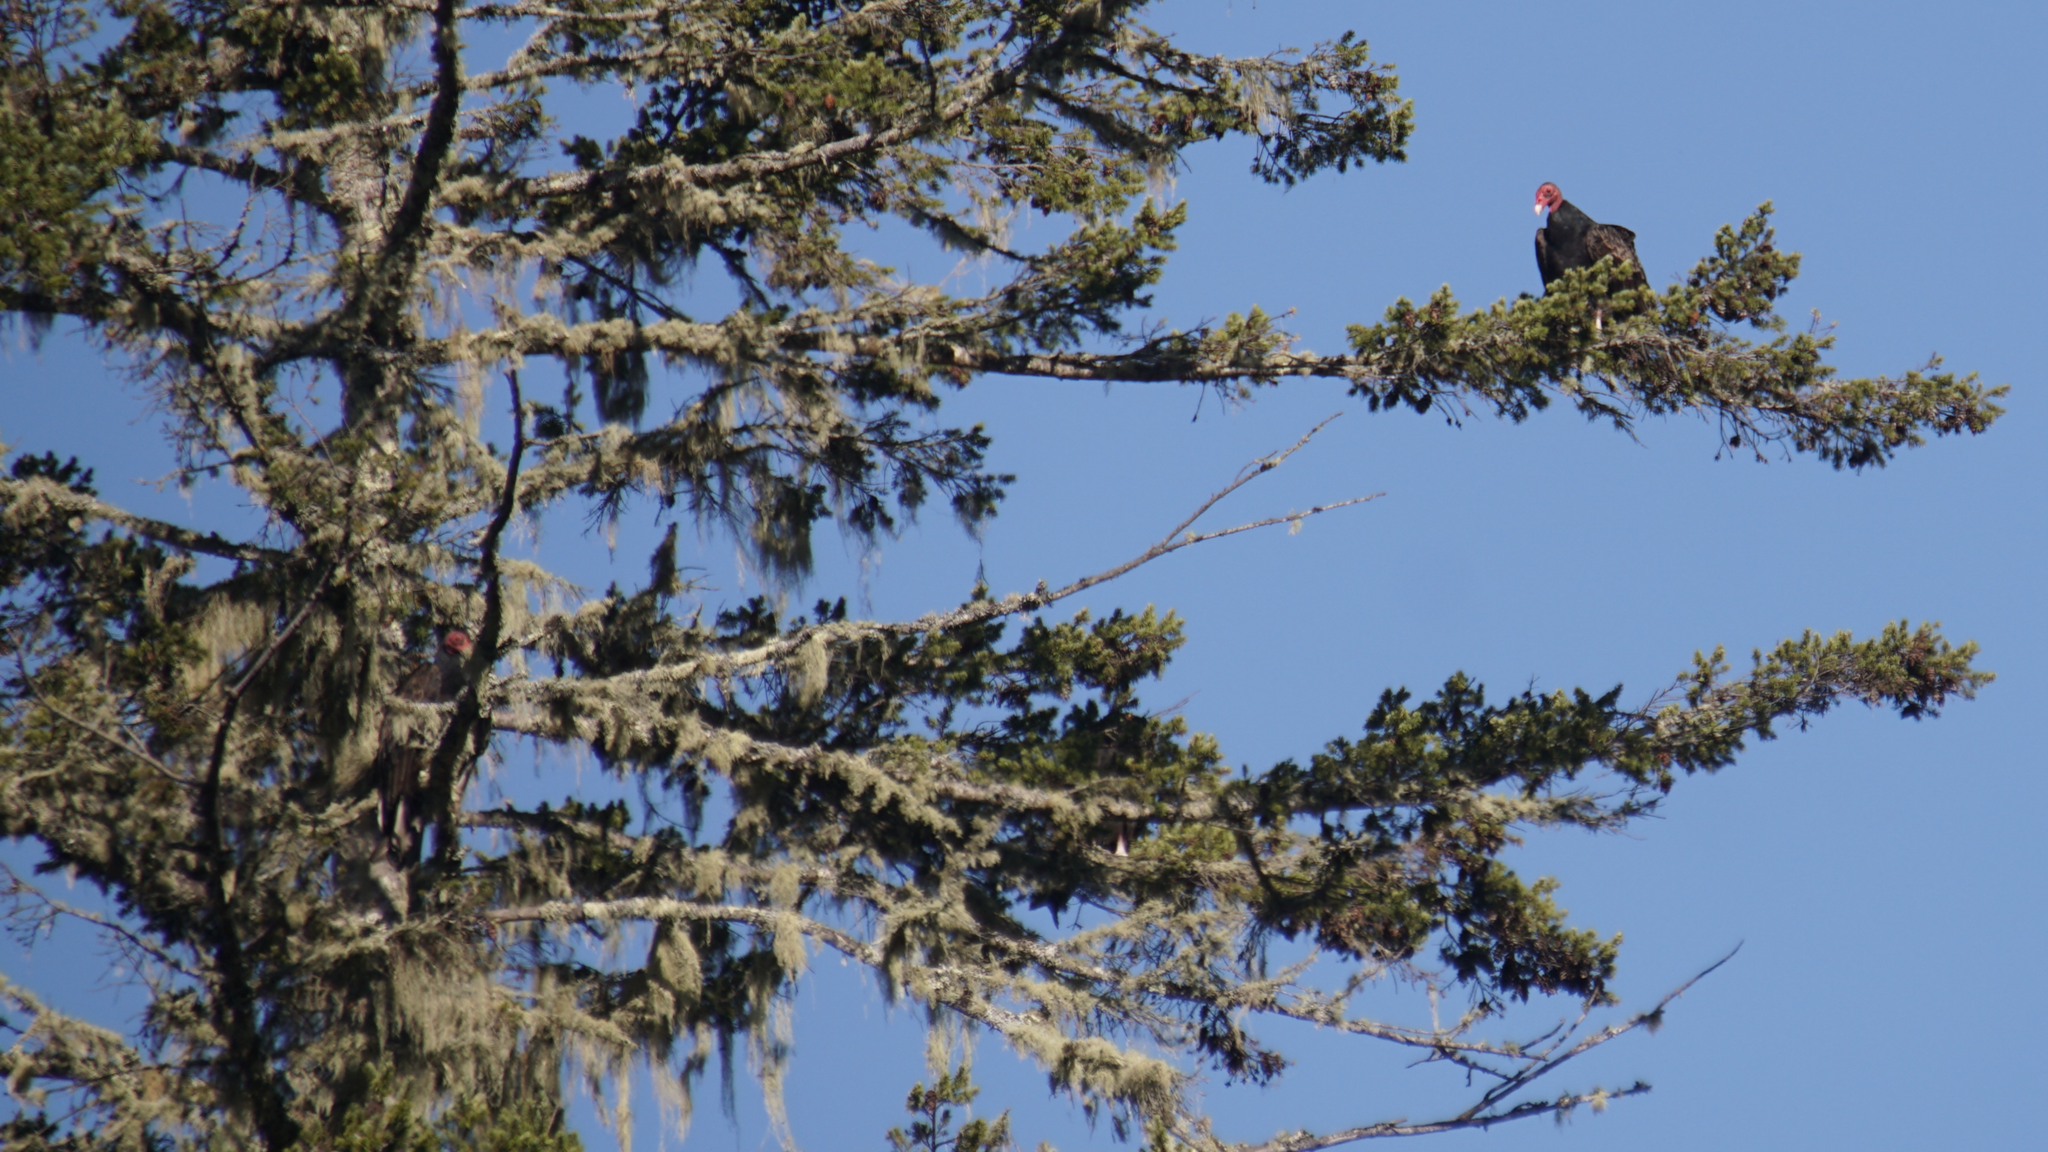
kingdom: Animalia
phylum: Chordata
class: Aves
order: Accipitriformes
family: Cathartidae
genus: Cathartes
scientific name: Cathartes aura
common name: Turkey vulture
